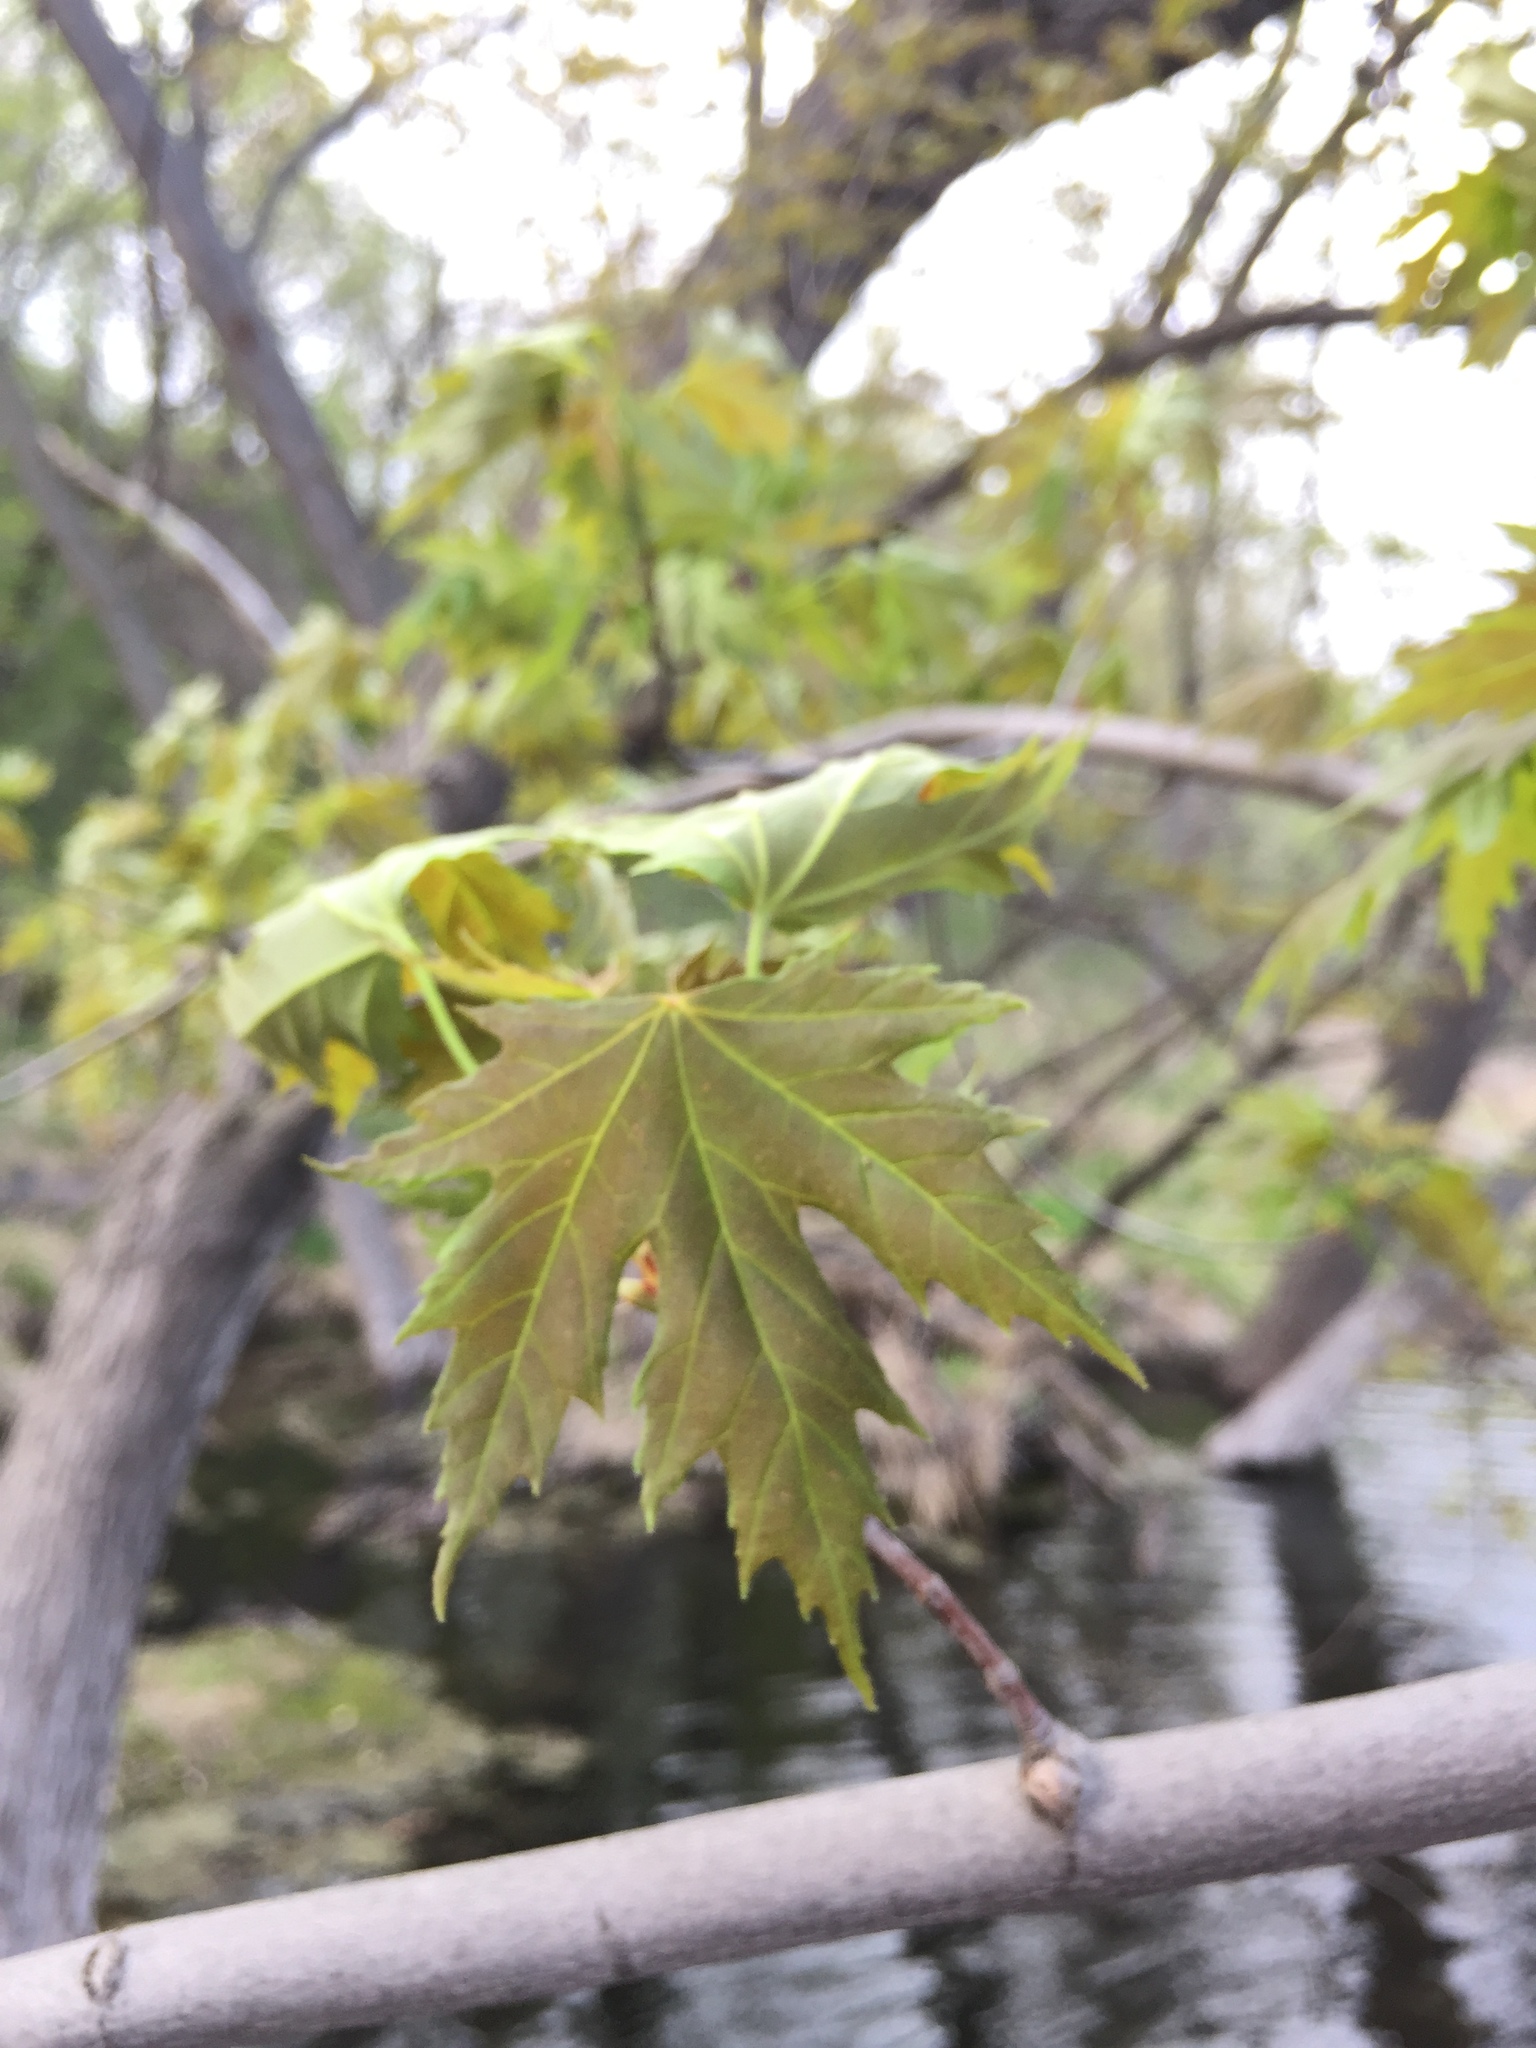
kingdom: Plantae
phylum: Tracheophyta
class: Magnoliopsida
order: Sapindales
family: Sapindaceae
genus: Acer
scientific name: Acer saccharinum
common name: Silver maple
